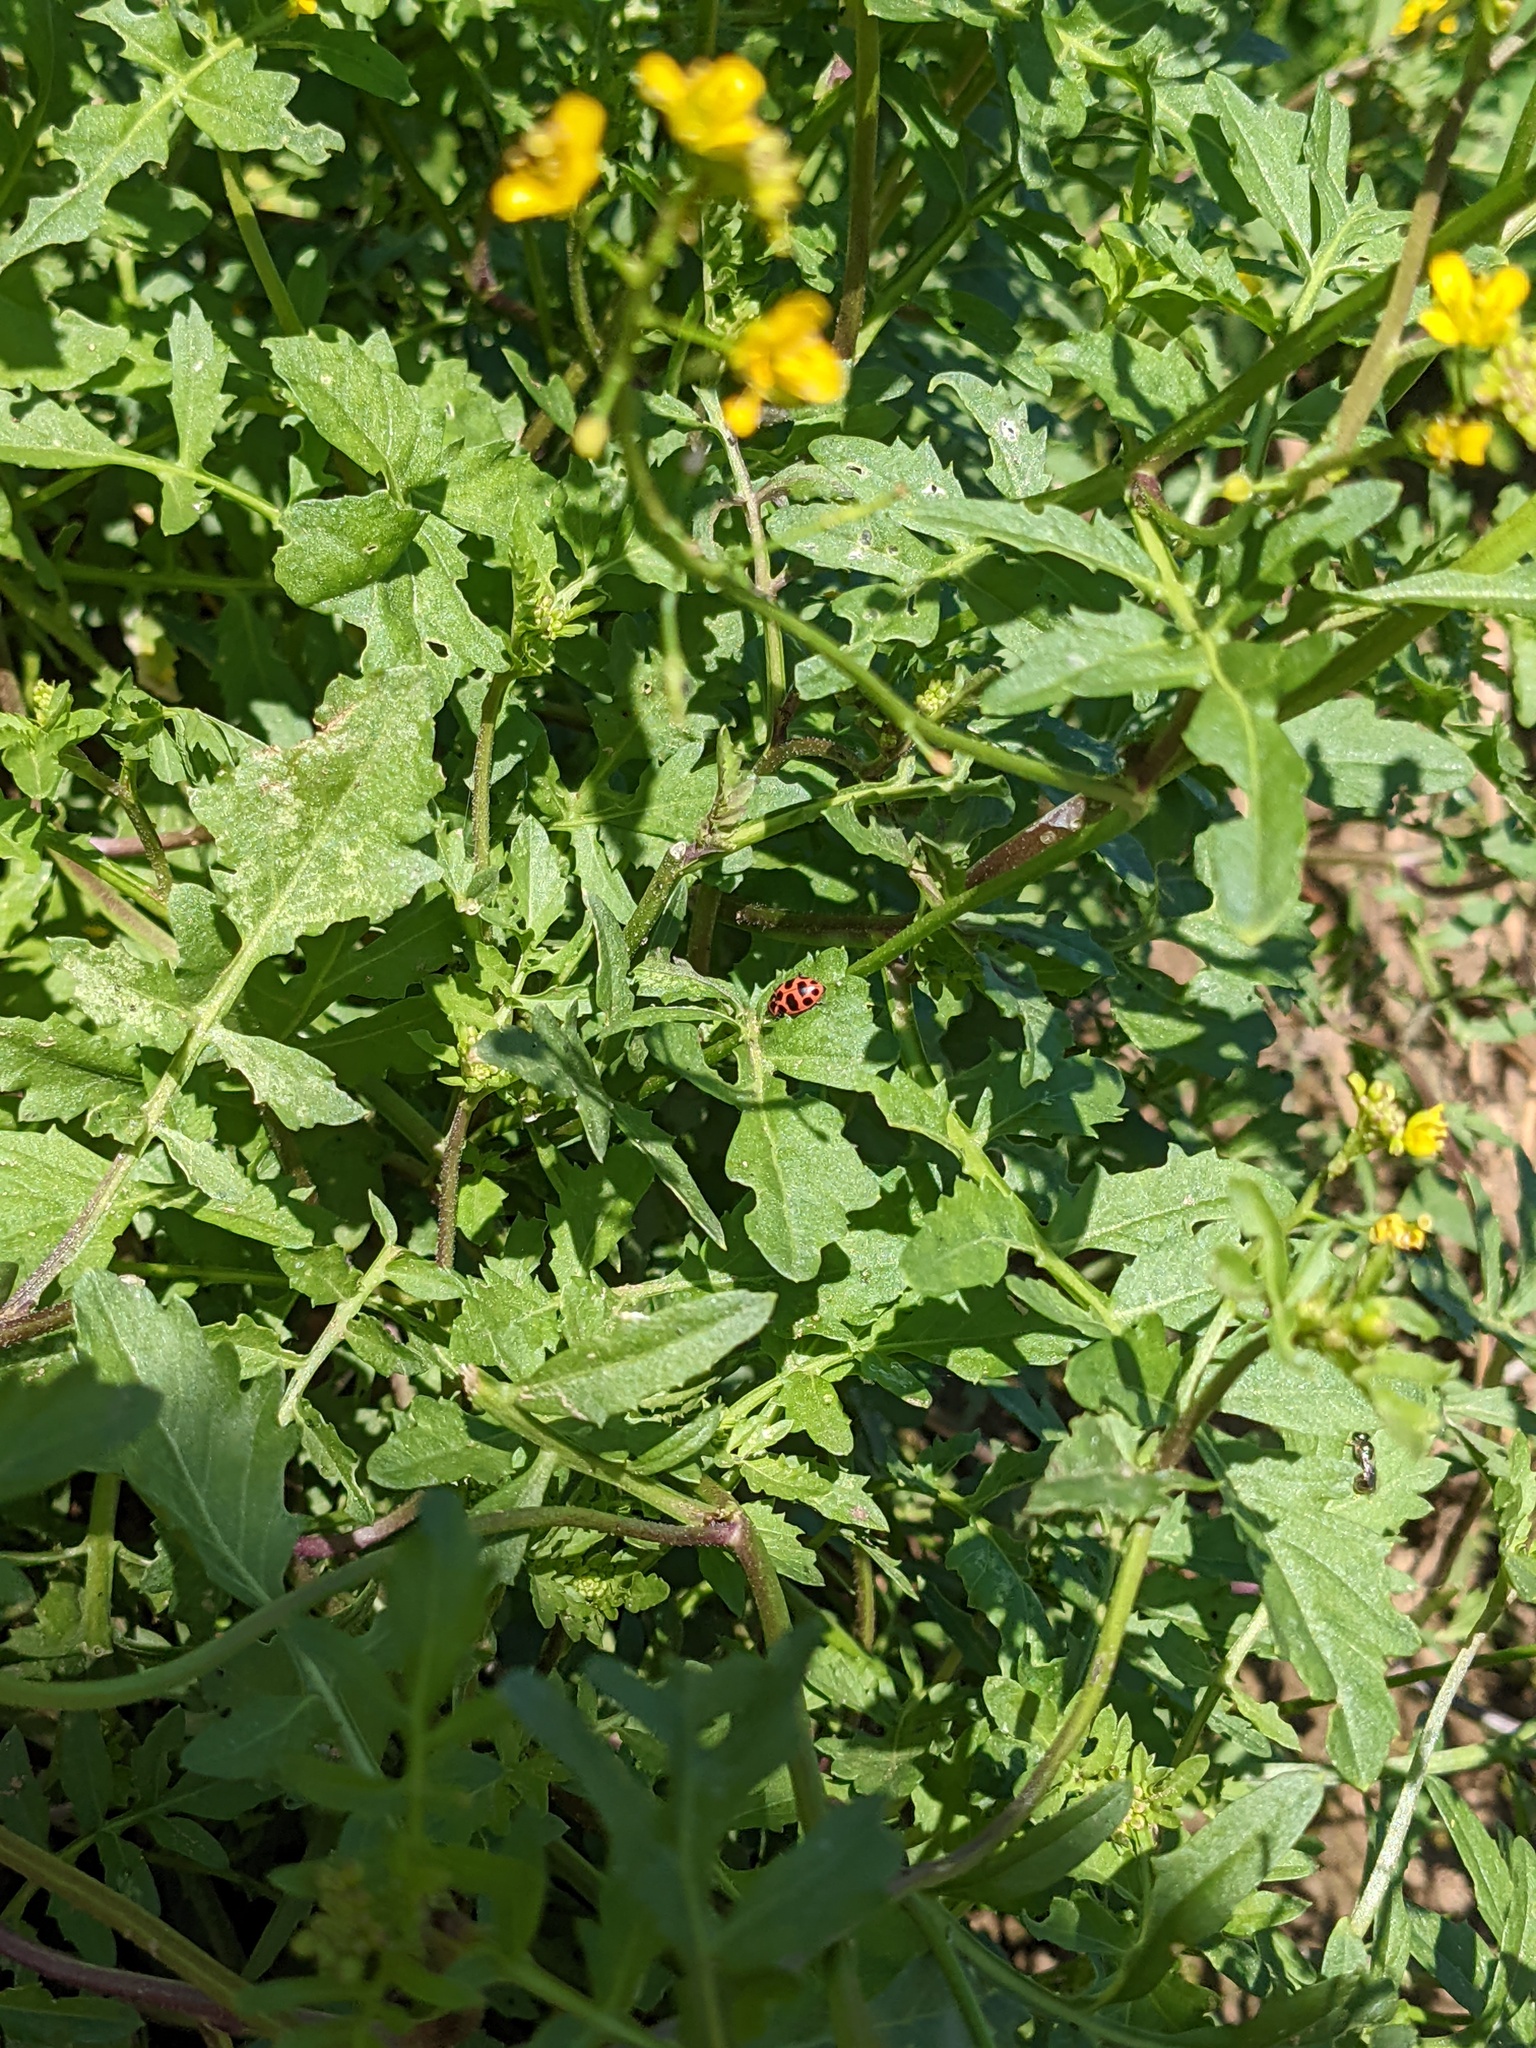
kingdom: Animalia
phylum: Arthropoda
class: Insecta
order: Coleoptera
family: Coccinellidae
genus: Coleomegilla
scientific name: Coleomegilla maculata
